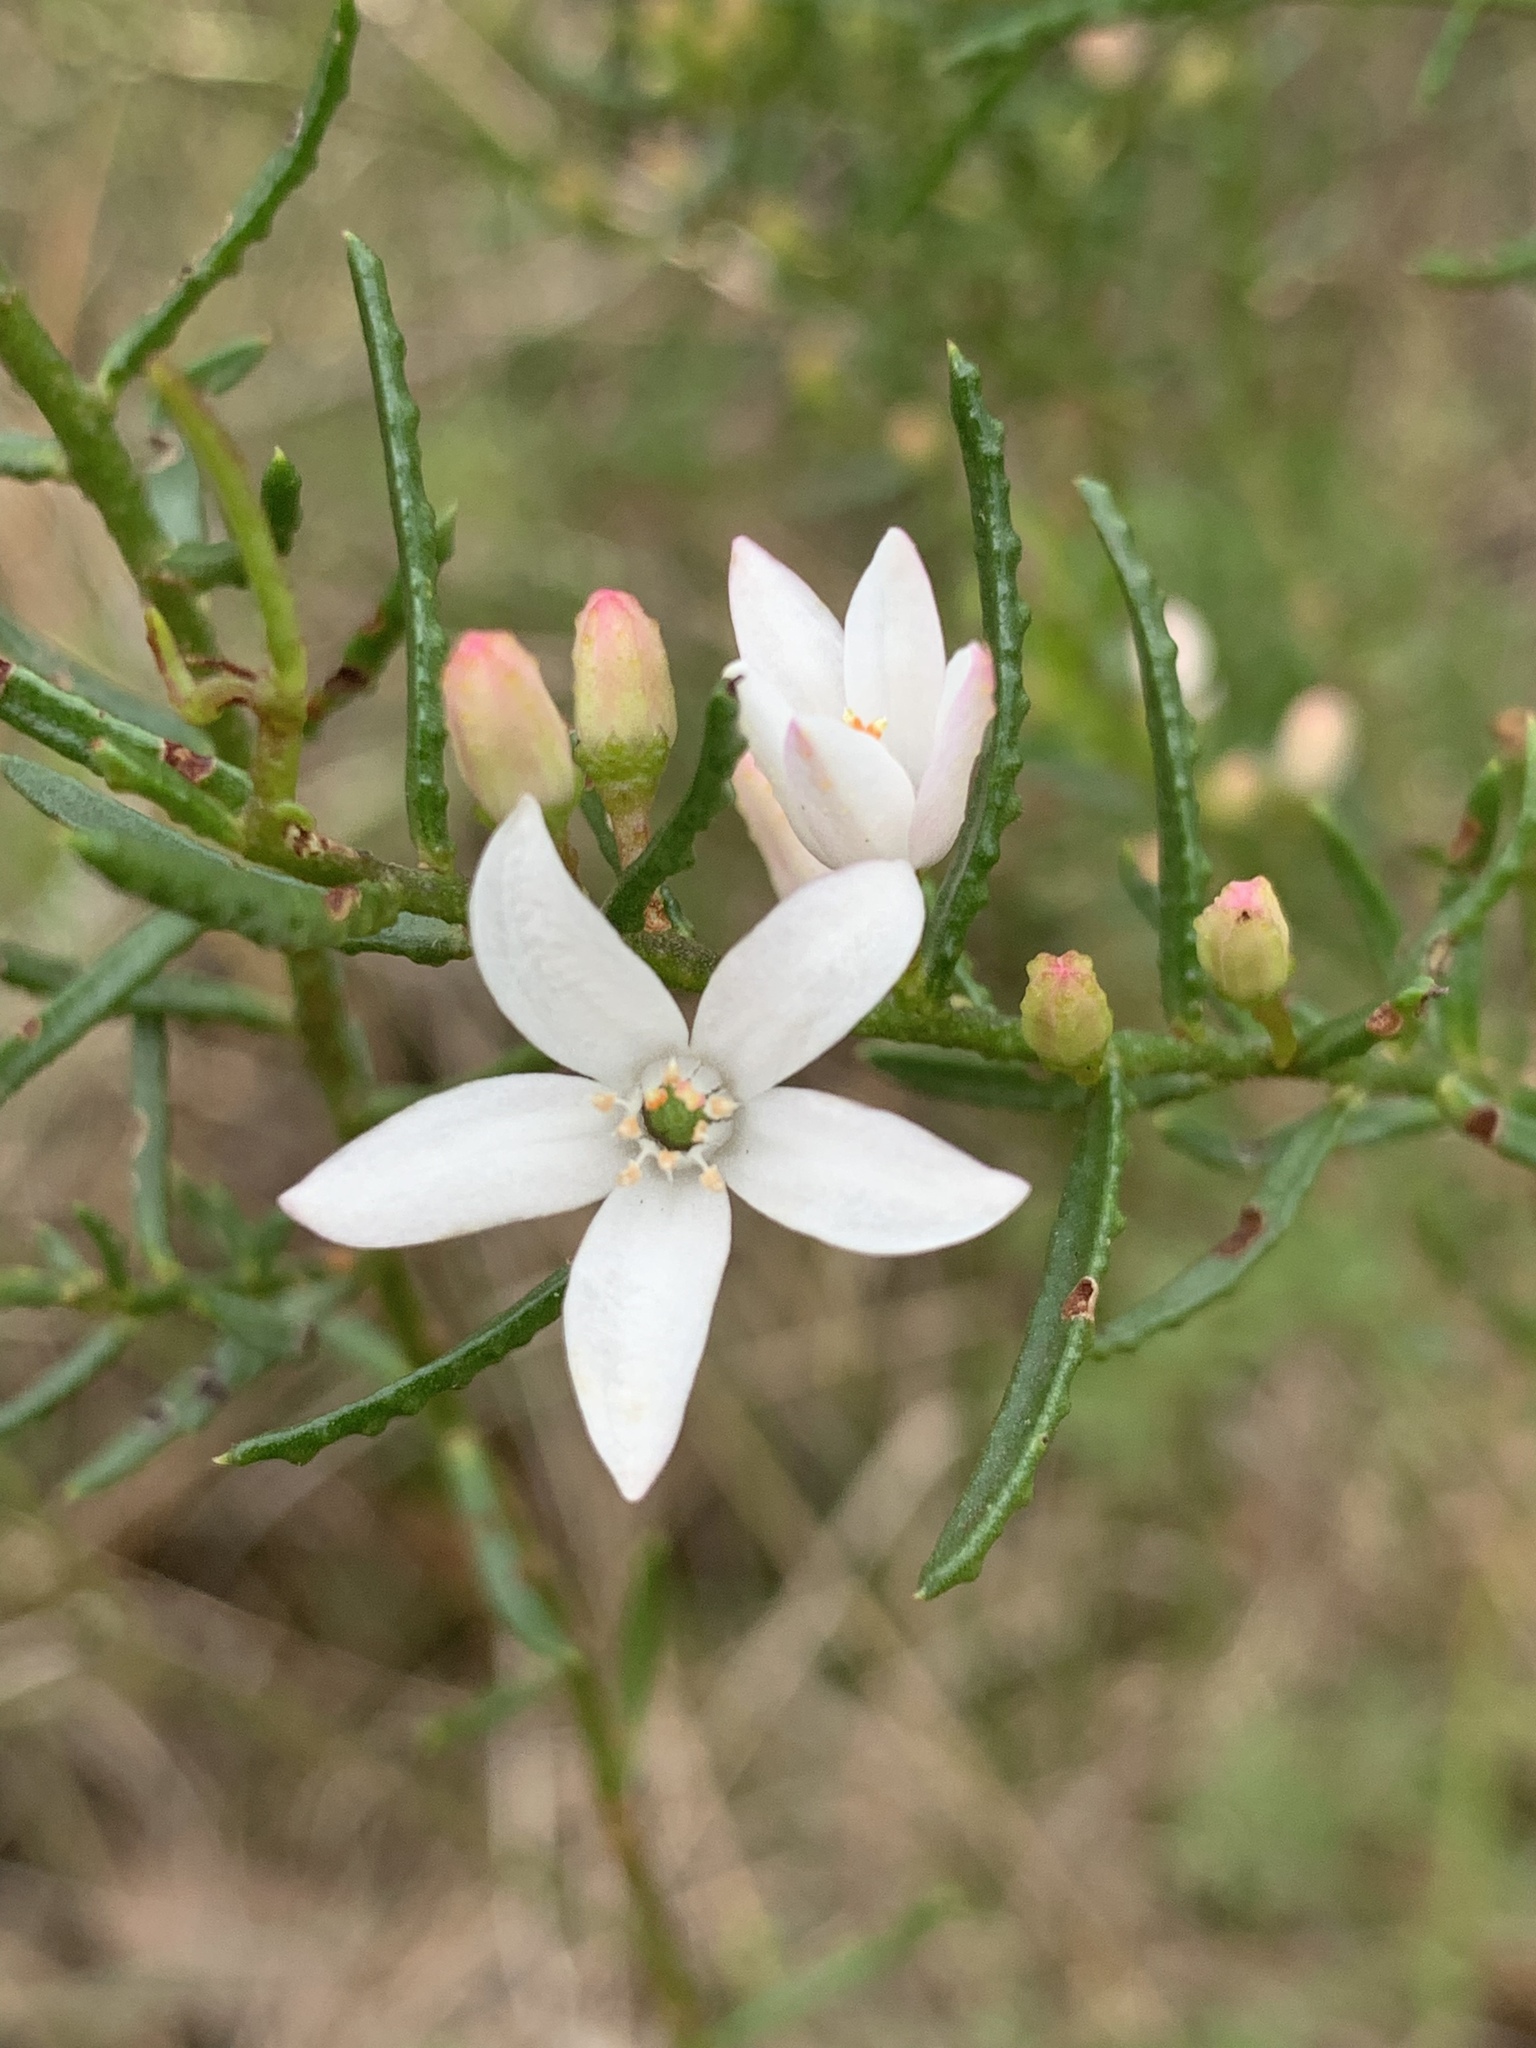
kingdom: Plantae
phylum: Tracheophyta
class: Magnoliopsida
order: Sapindales
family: Rutaceae
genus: Philotheca
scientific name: Philotheca scabra
